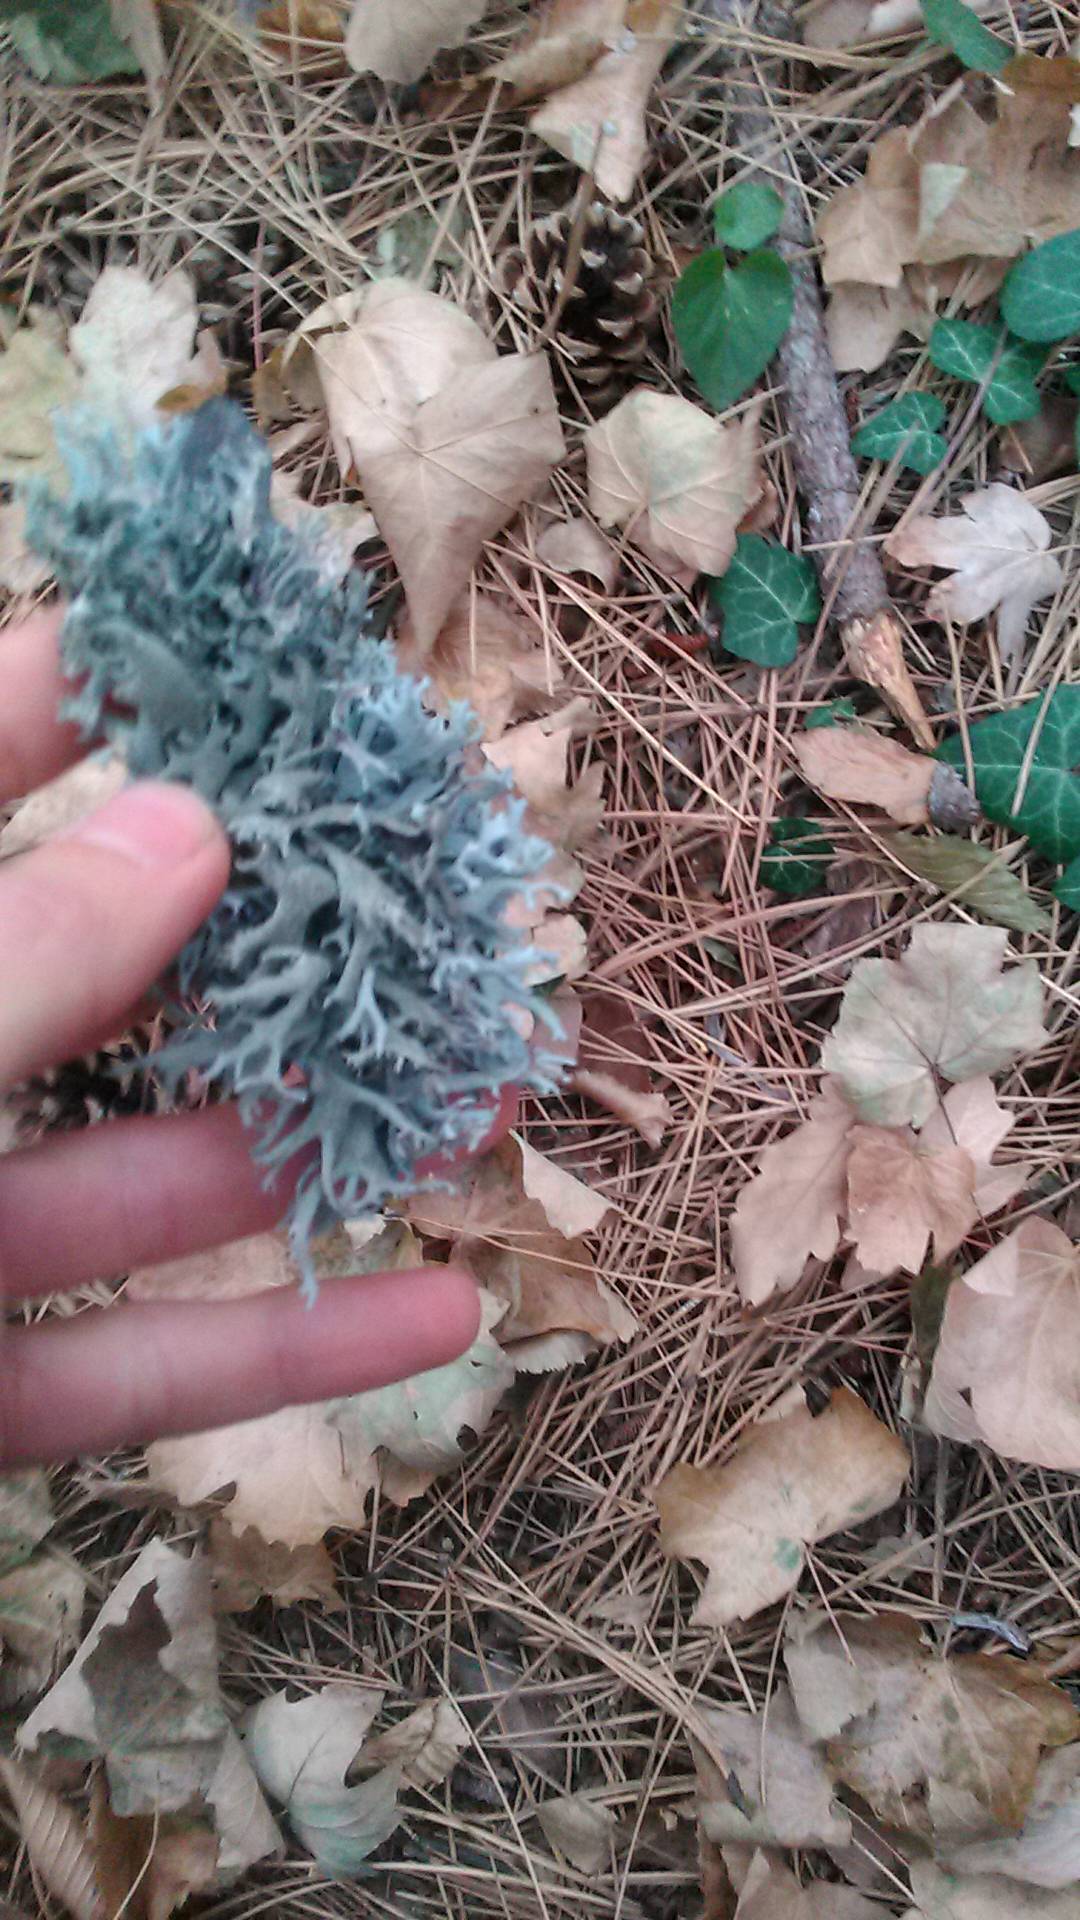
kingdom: Fungi
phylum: Ascomycota
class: Lecanoromycetes
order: Lecanorales
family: Parmeliaceae
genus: Pseudevernia
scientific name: Pseudevernia furfuracea
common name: Tree moss
